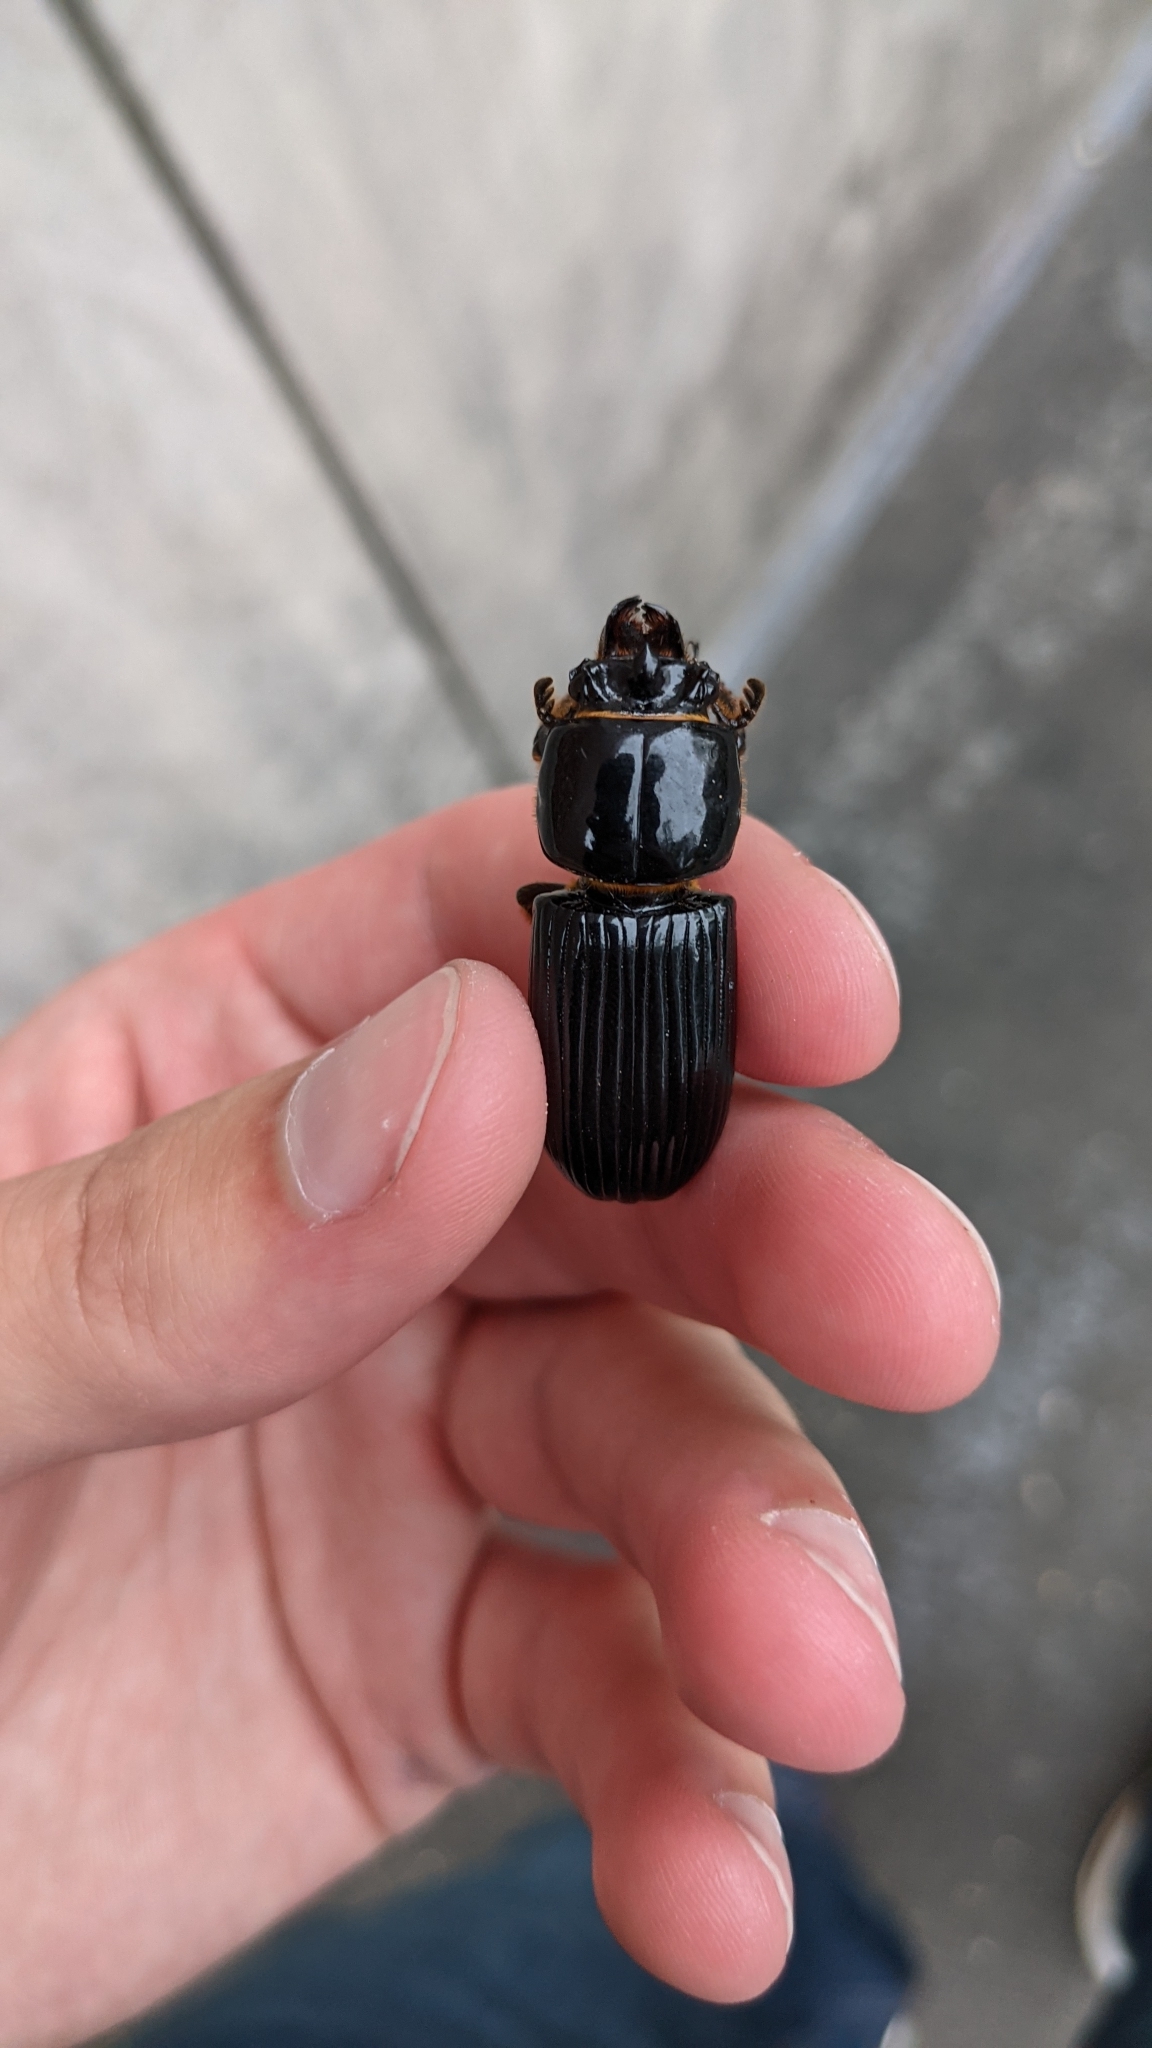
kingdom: Animalia
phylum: Arthropoda
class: Insecta
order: Coleoptera
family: Passalidae
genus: Odontotaenius
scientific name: Odontotaenius disjunctus
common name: Patent leather beetle
